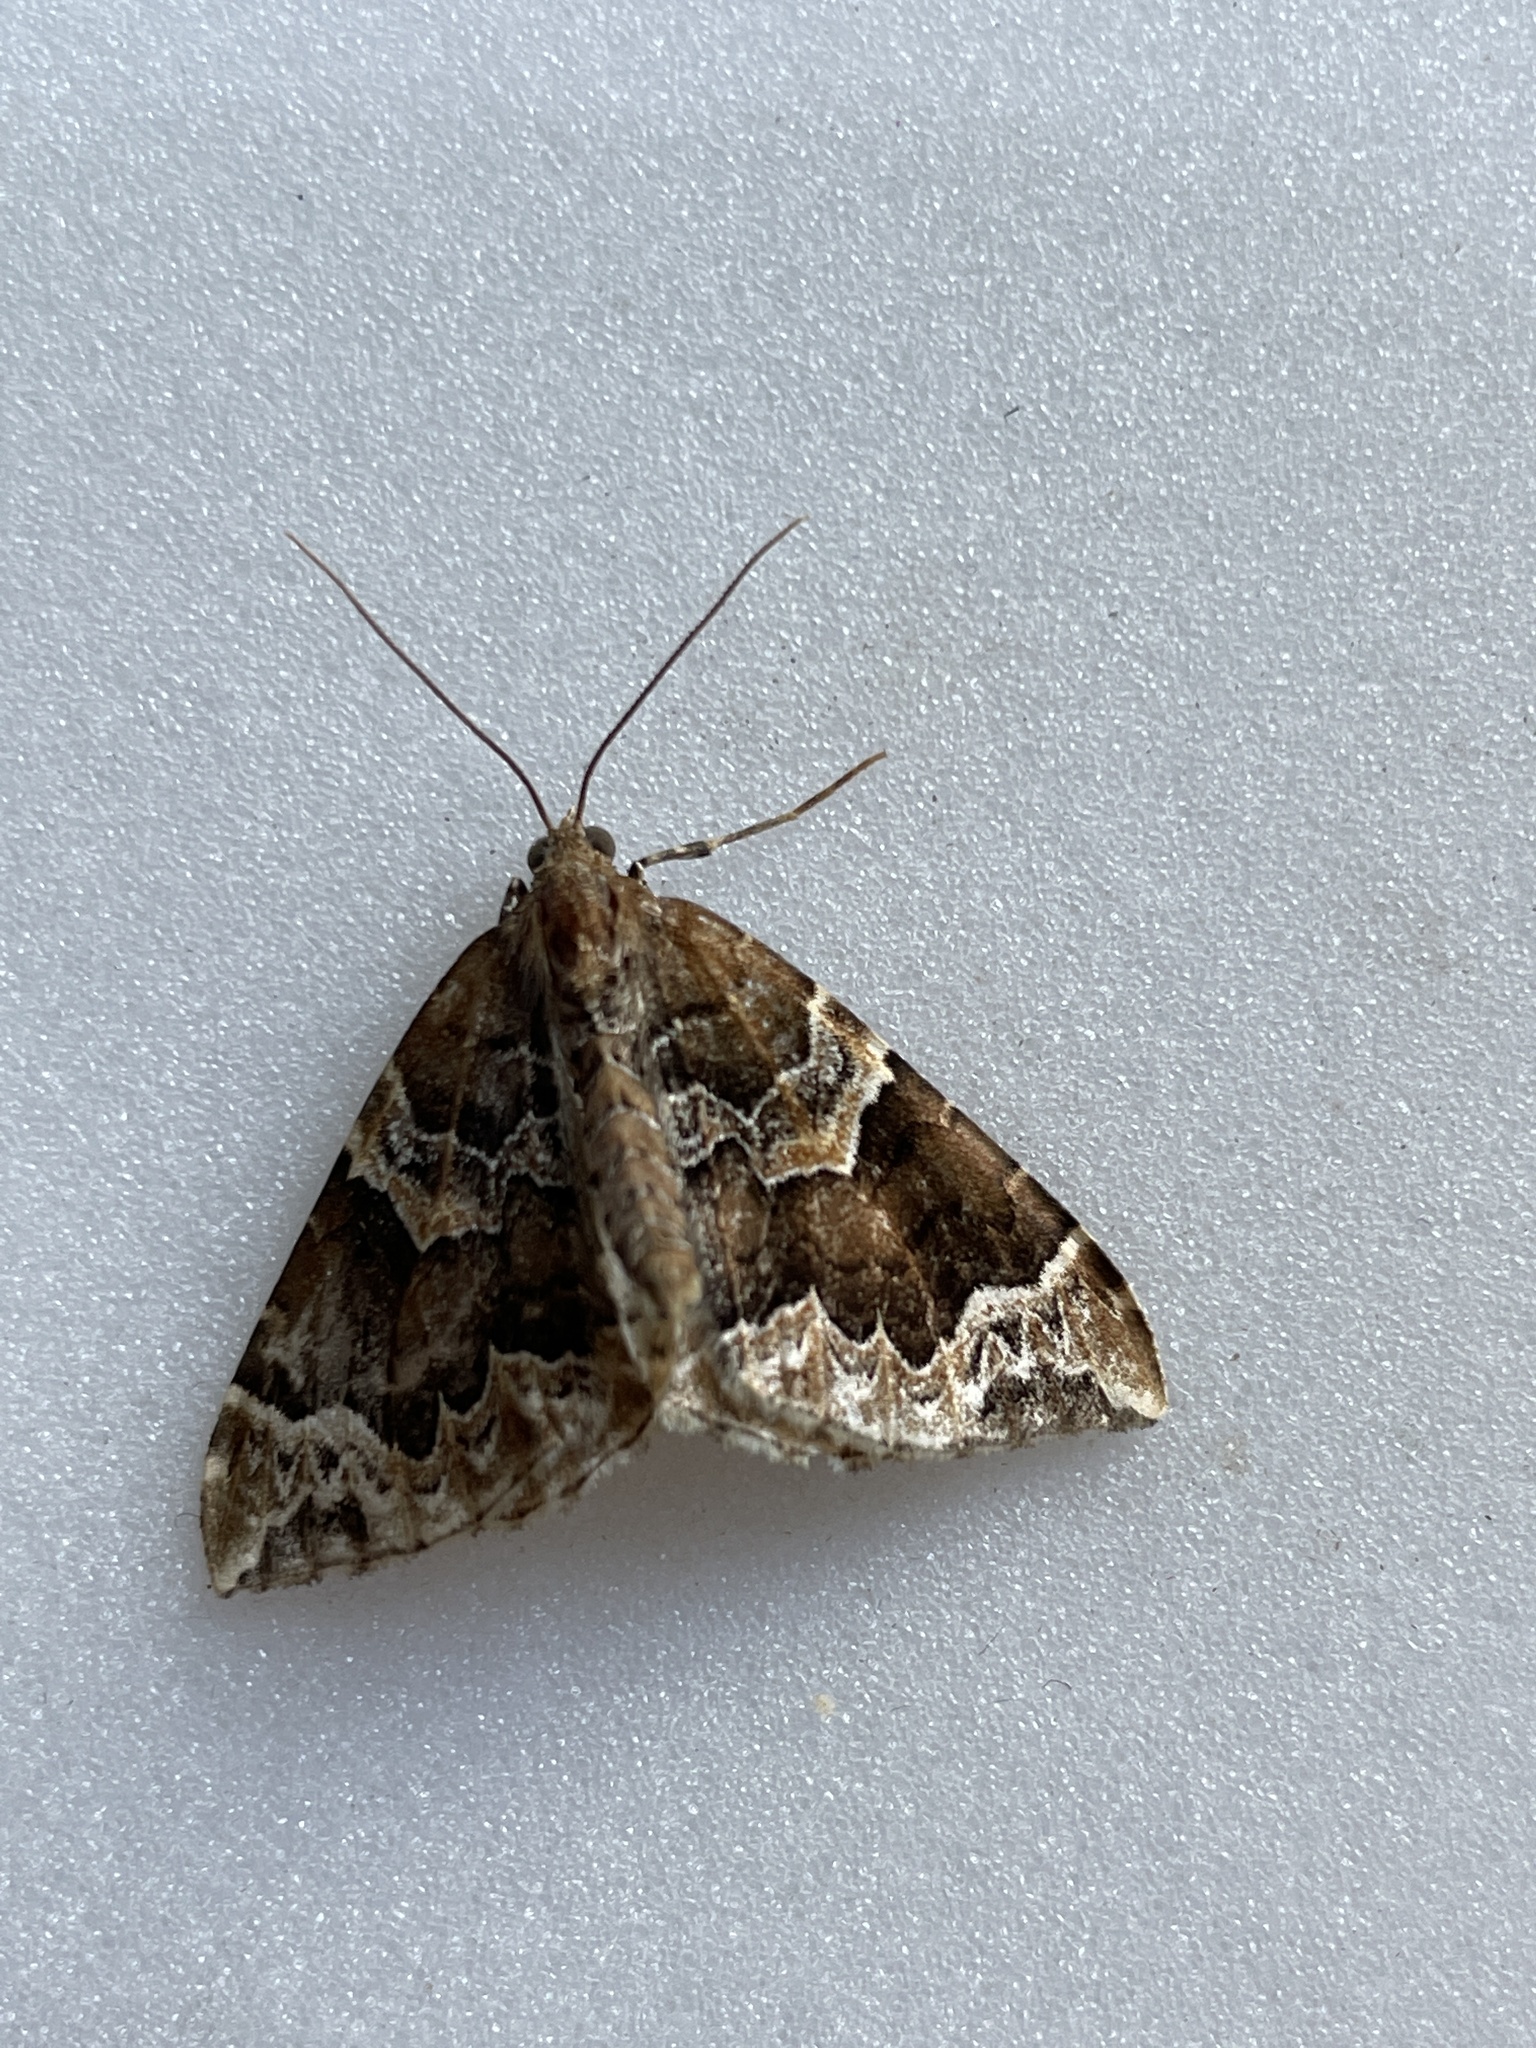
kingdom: Animalia
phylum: Arthropoda
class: Insecta
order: Lepidoptera
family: Geometridae
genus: Eulithis
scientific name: Eulithis prunata
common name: Phoenix
